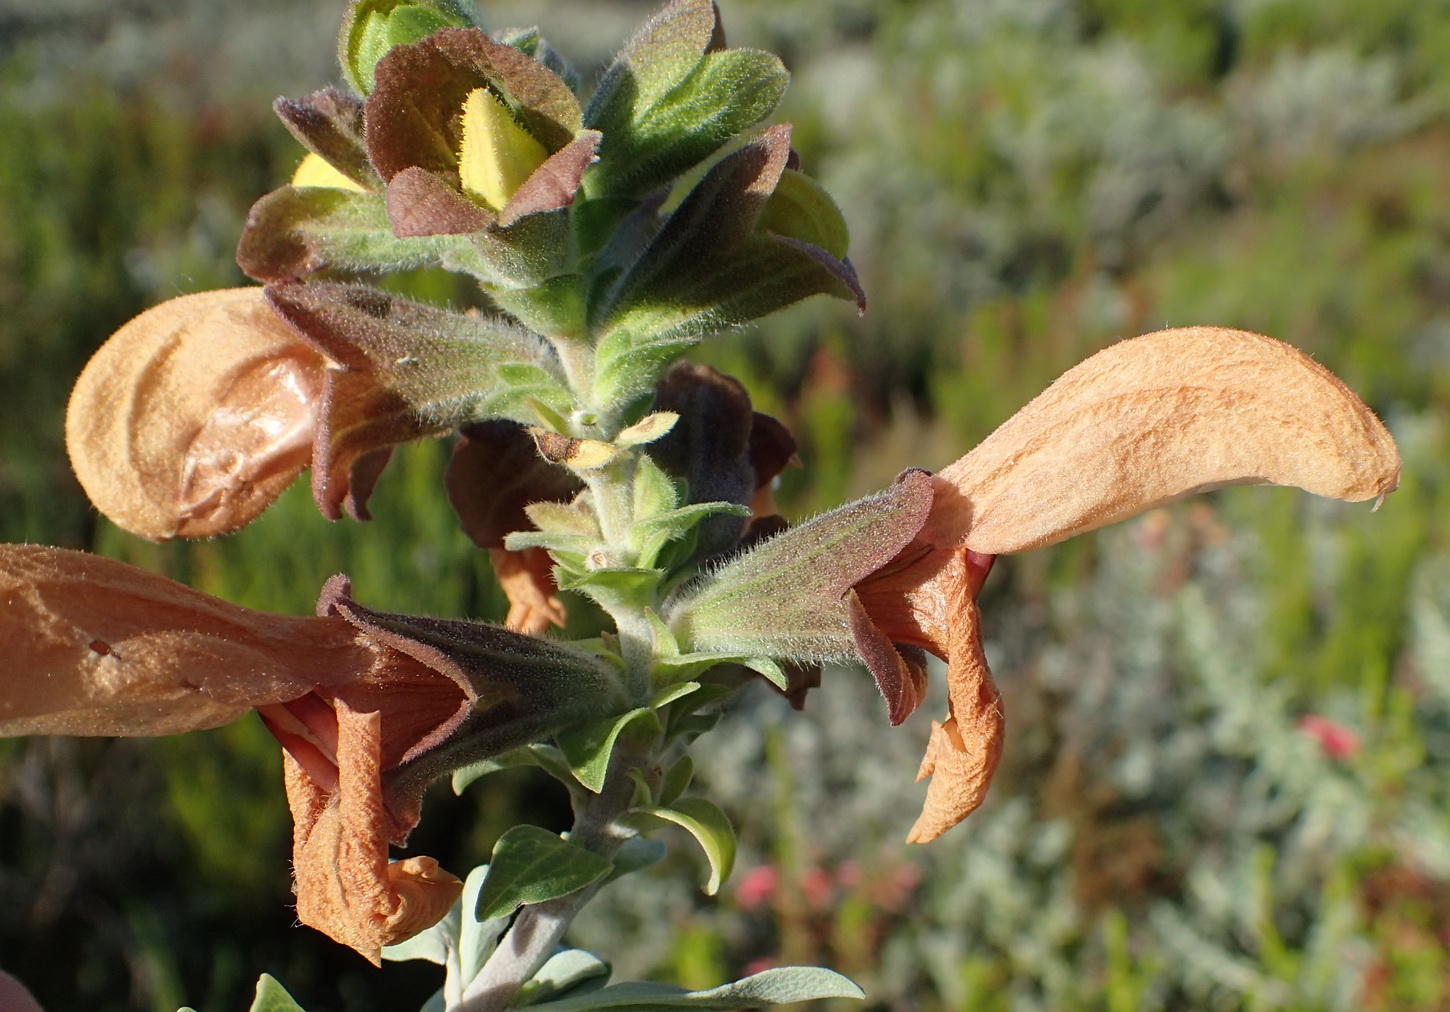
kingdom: Plantae
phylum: Tracheophyta
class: Magnoliopsida
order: Lamiales
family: Lamiaceae
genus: Salvia
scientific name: Salvia aurea
